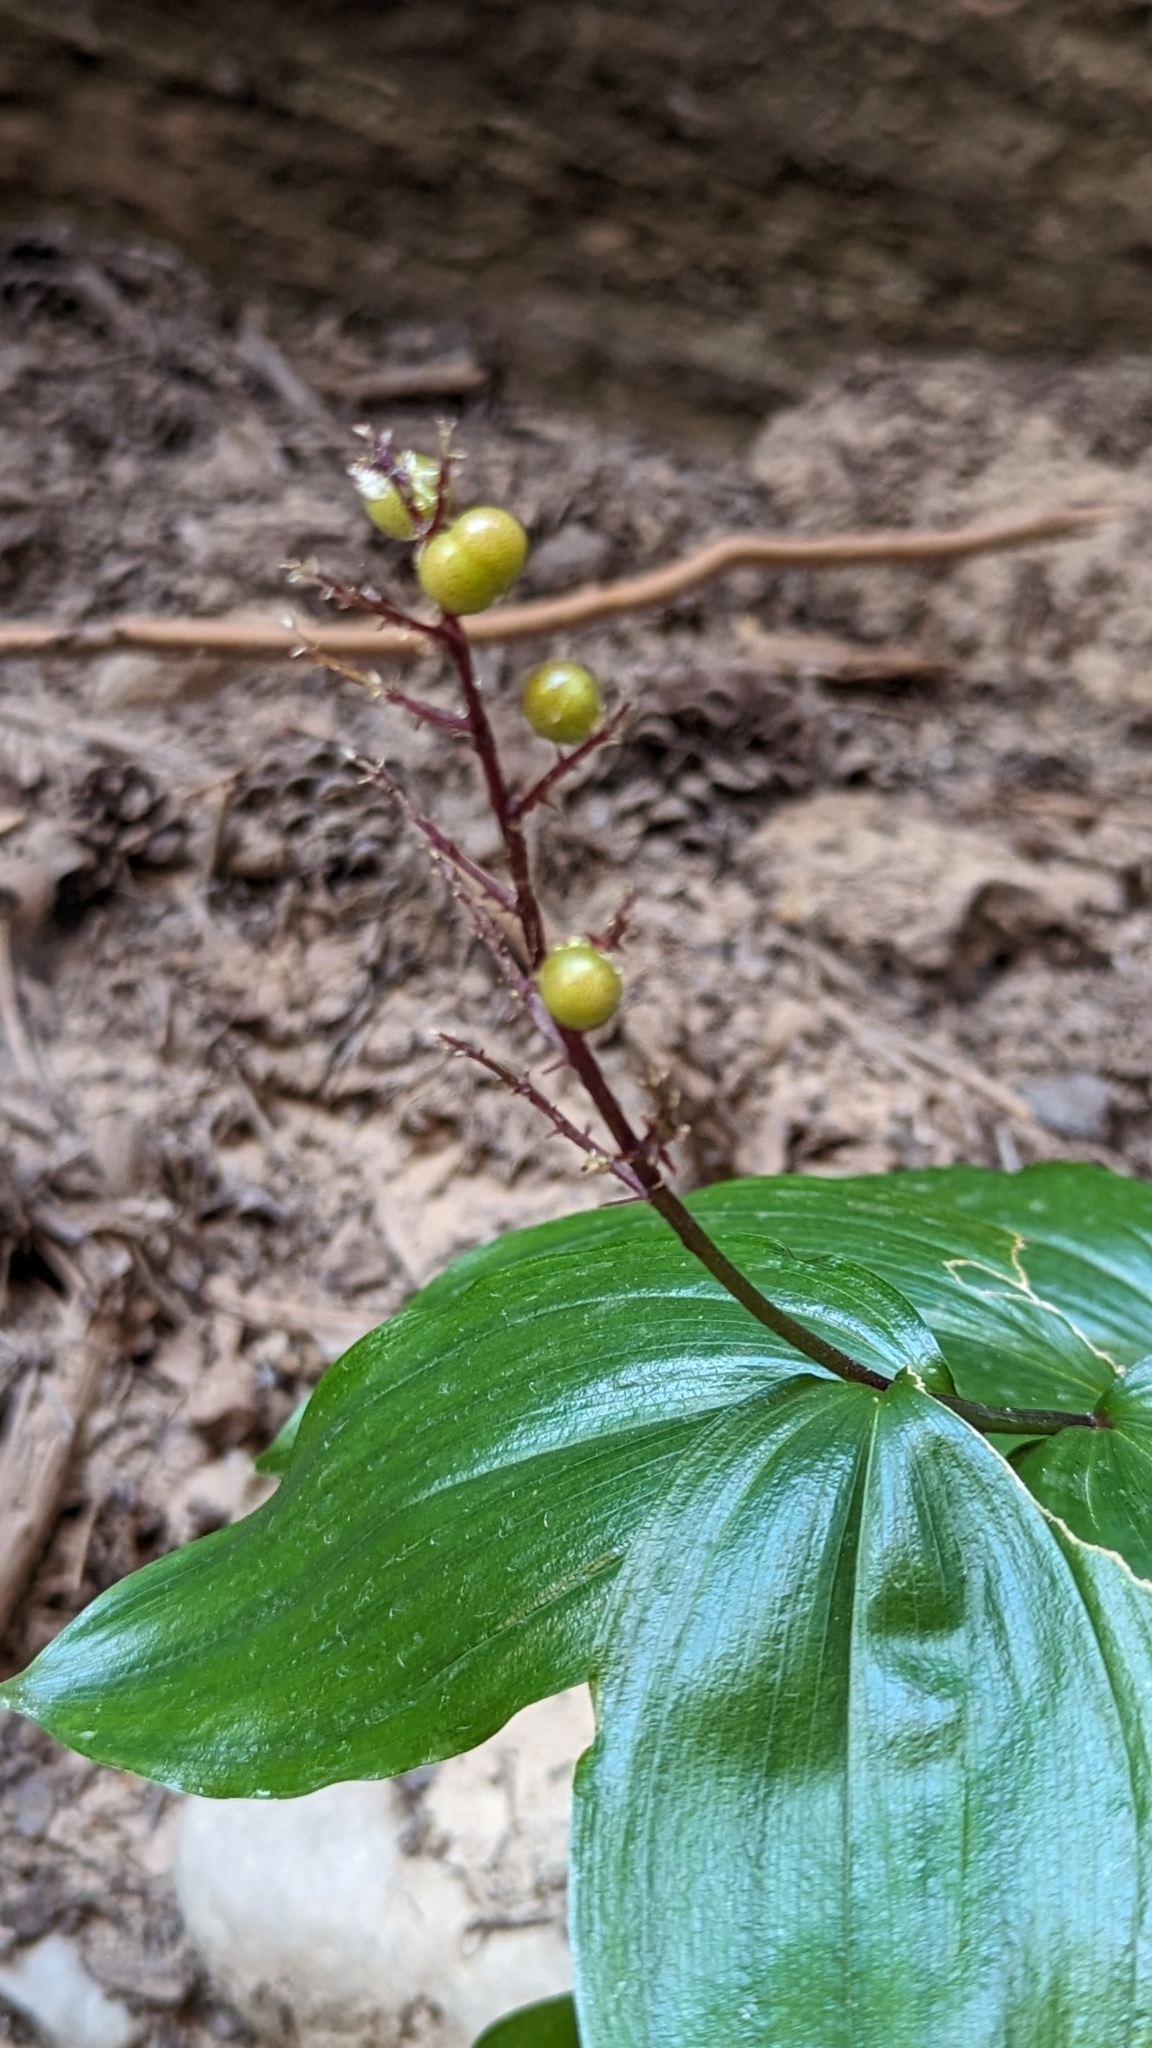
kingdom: Plantae
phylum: Tracheophyta
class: Liliopsida
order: Asparagales
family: Asparagaceae
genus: Maianthemum
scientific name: Maianthemum racemosum
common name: False spikenard
